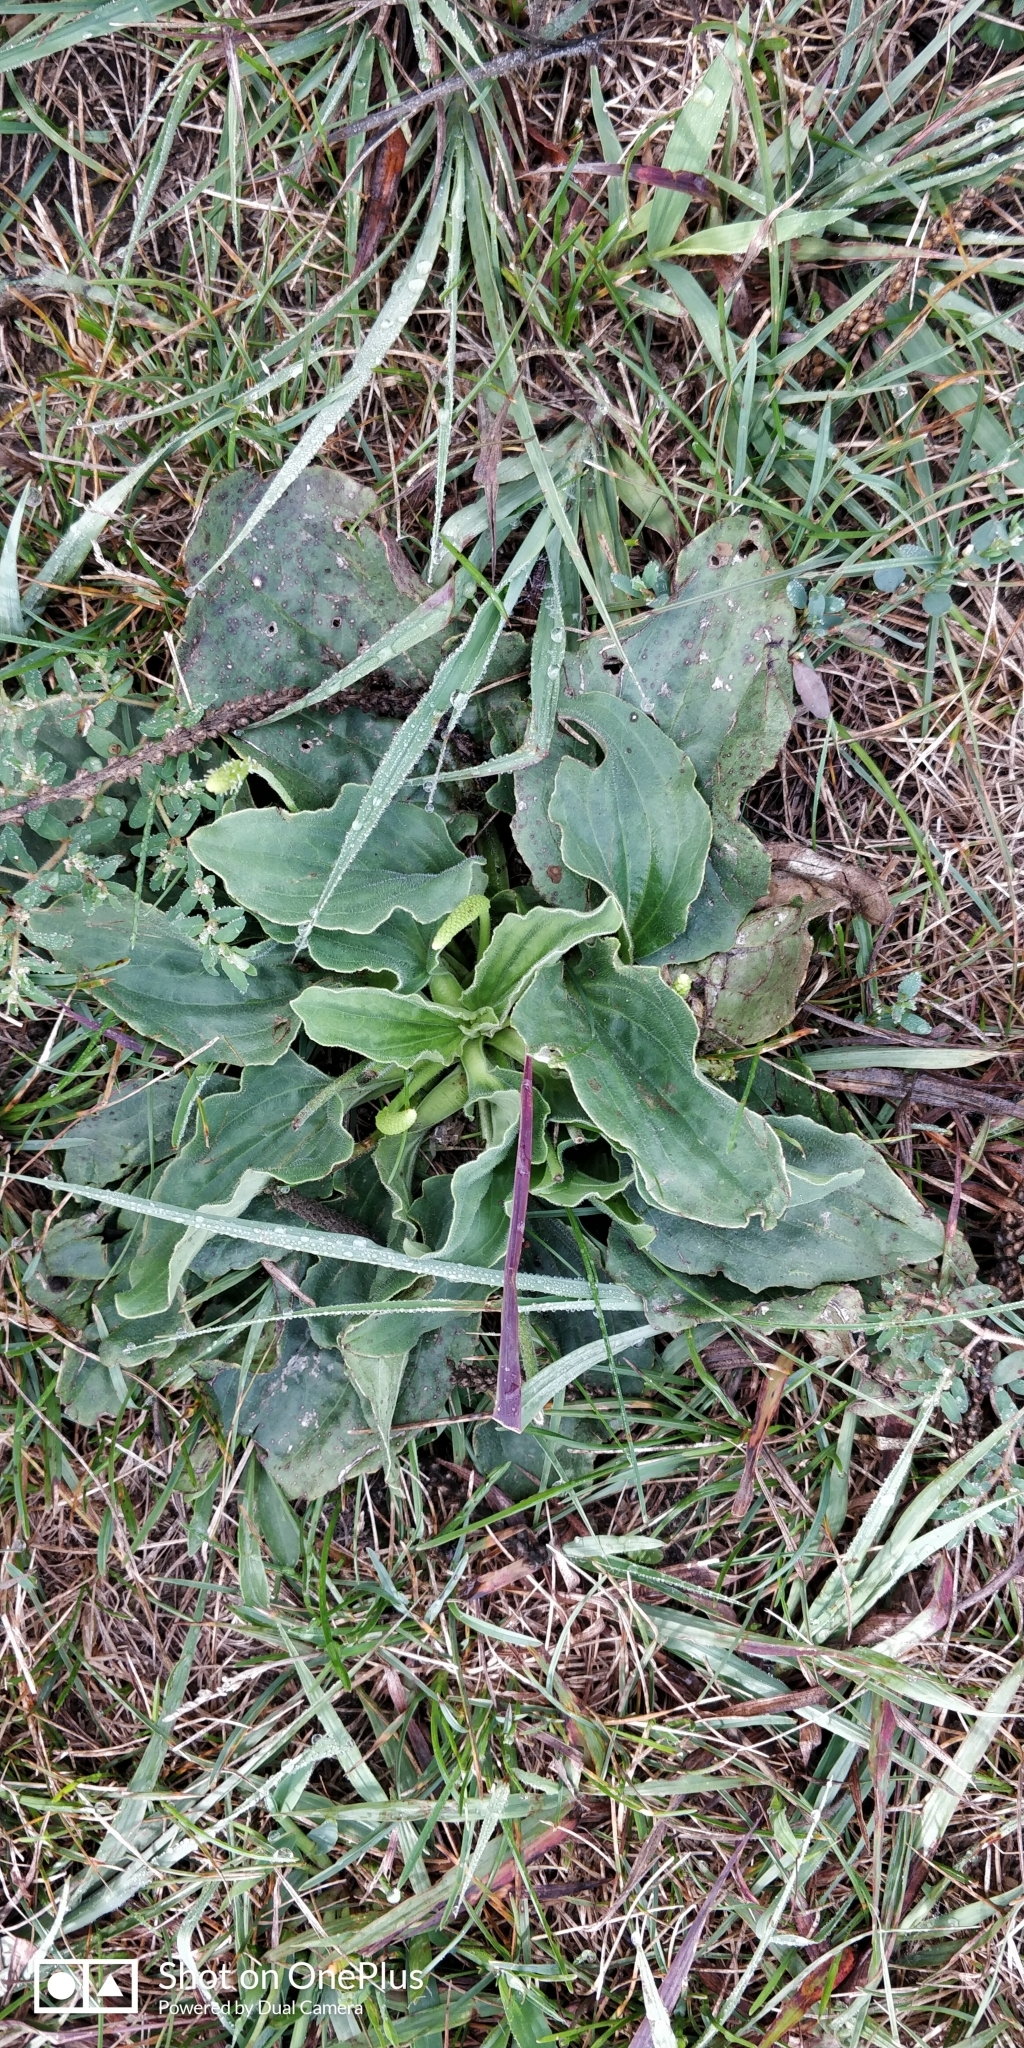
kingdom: Plantae
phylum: Tracheophyta
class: Magnoliopsida
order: Lamiales
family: Plantaginaceae
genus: Plantago
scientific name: Plantago major
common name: Common plantain
